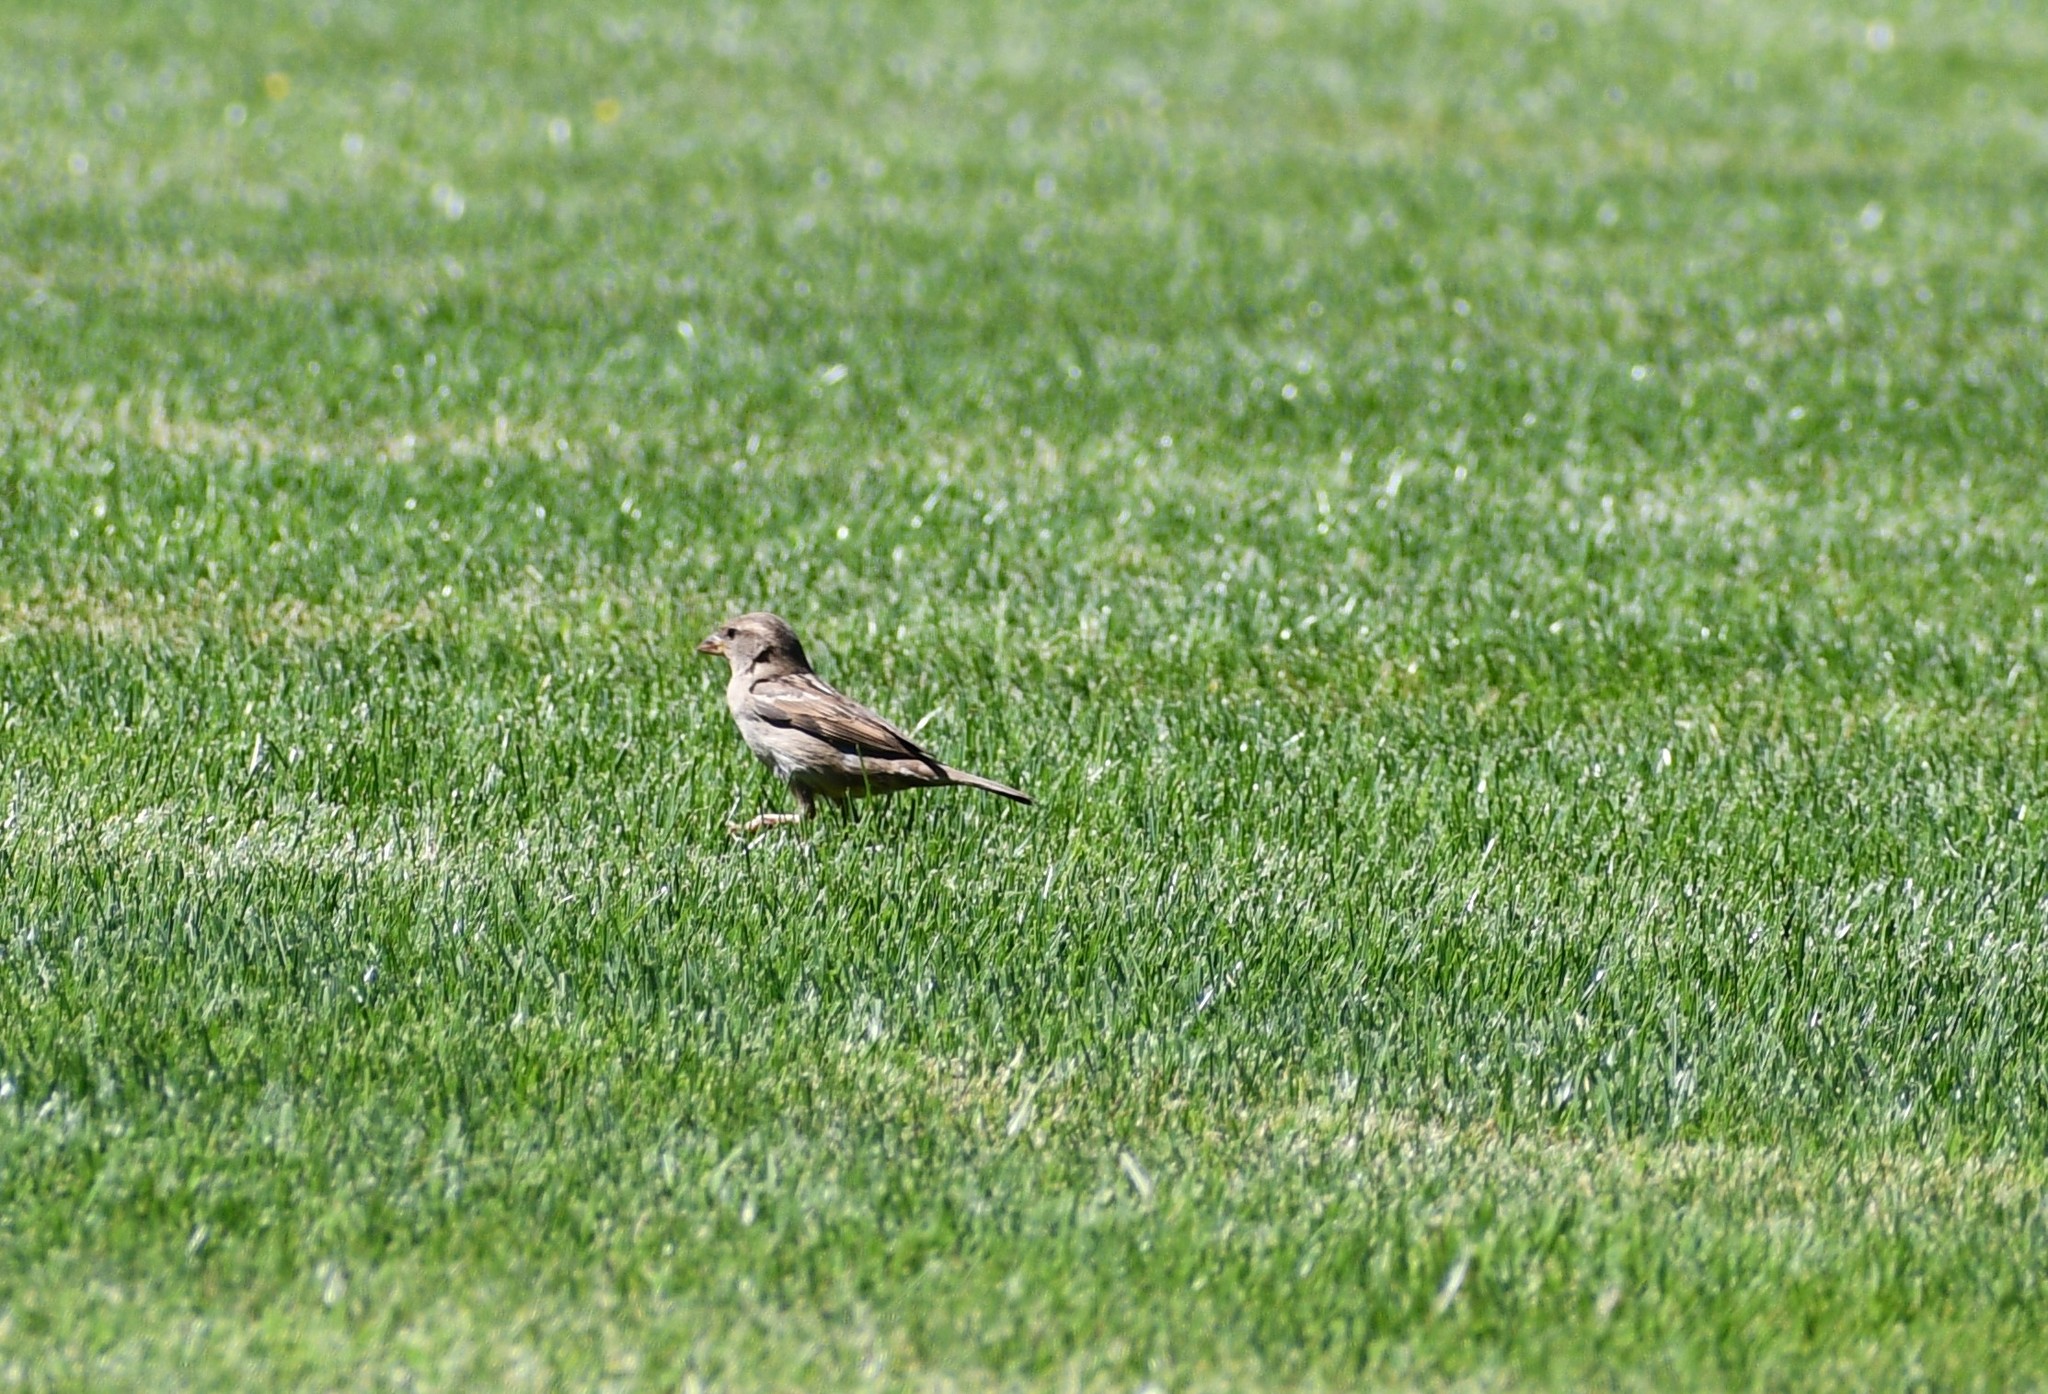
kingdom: Animalia
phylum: Chordata
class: Aves
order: Passeriformes
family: Passeridae
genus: Passer
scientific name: Passer domesticus
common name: House sparrow
